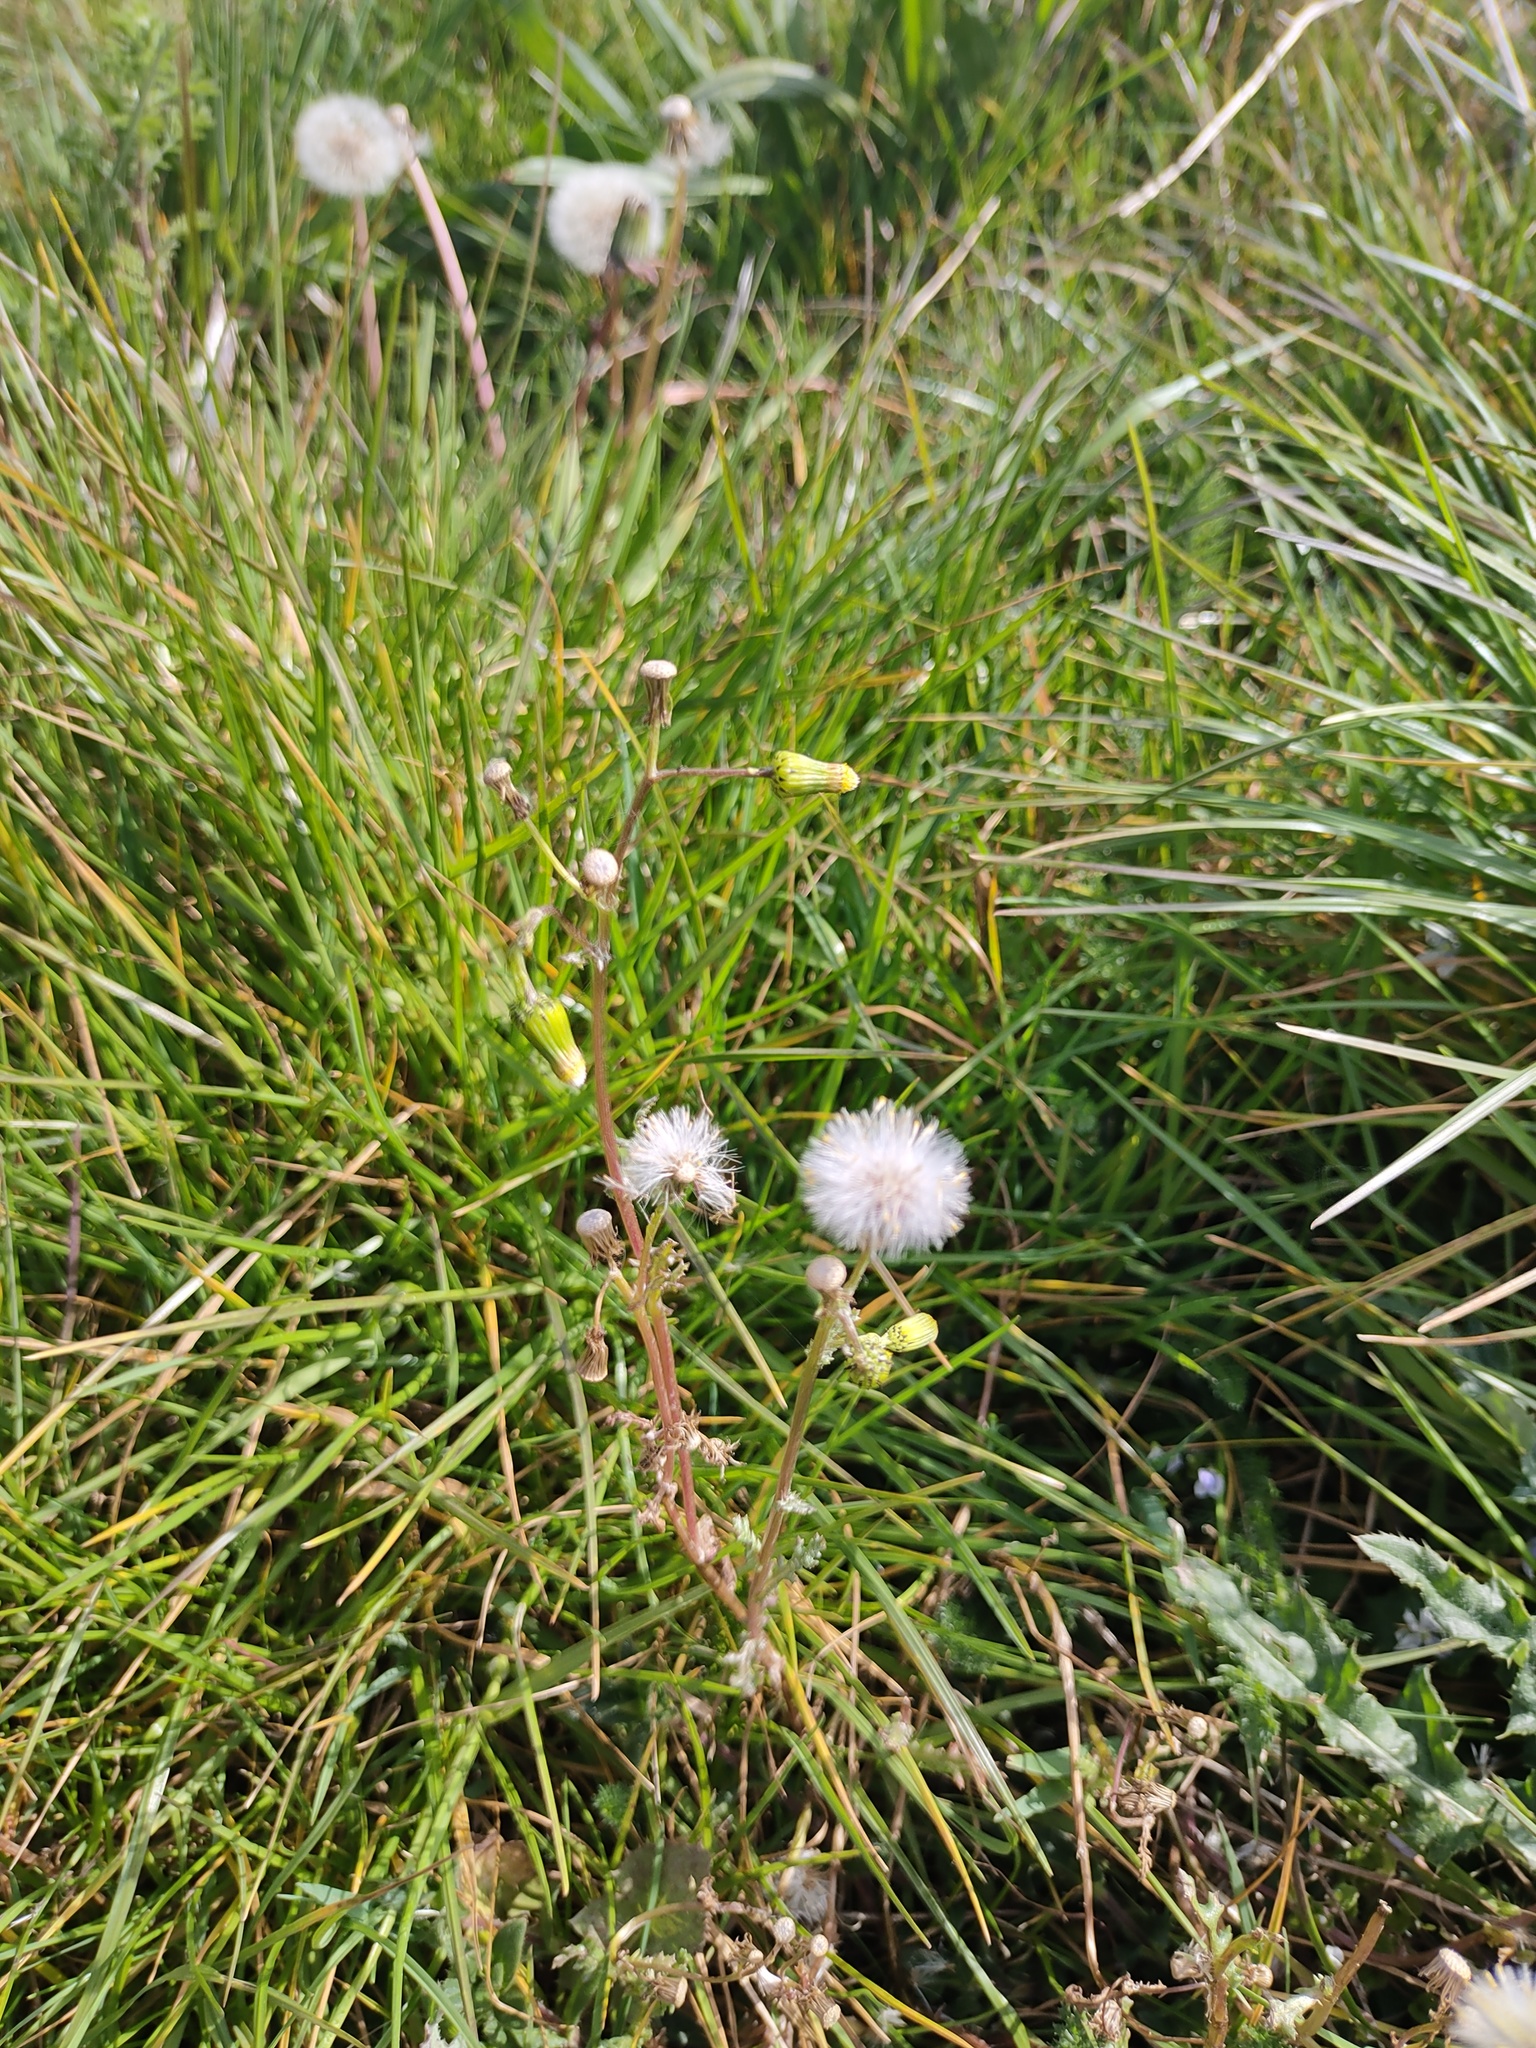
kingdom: Plantae
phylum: Tracheophyta
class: Magnoliopsida
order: Asterales
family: Asteraceae
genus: Senecio
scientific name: Senecio vulgaris
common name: Old-man-in-the-spring
